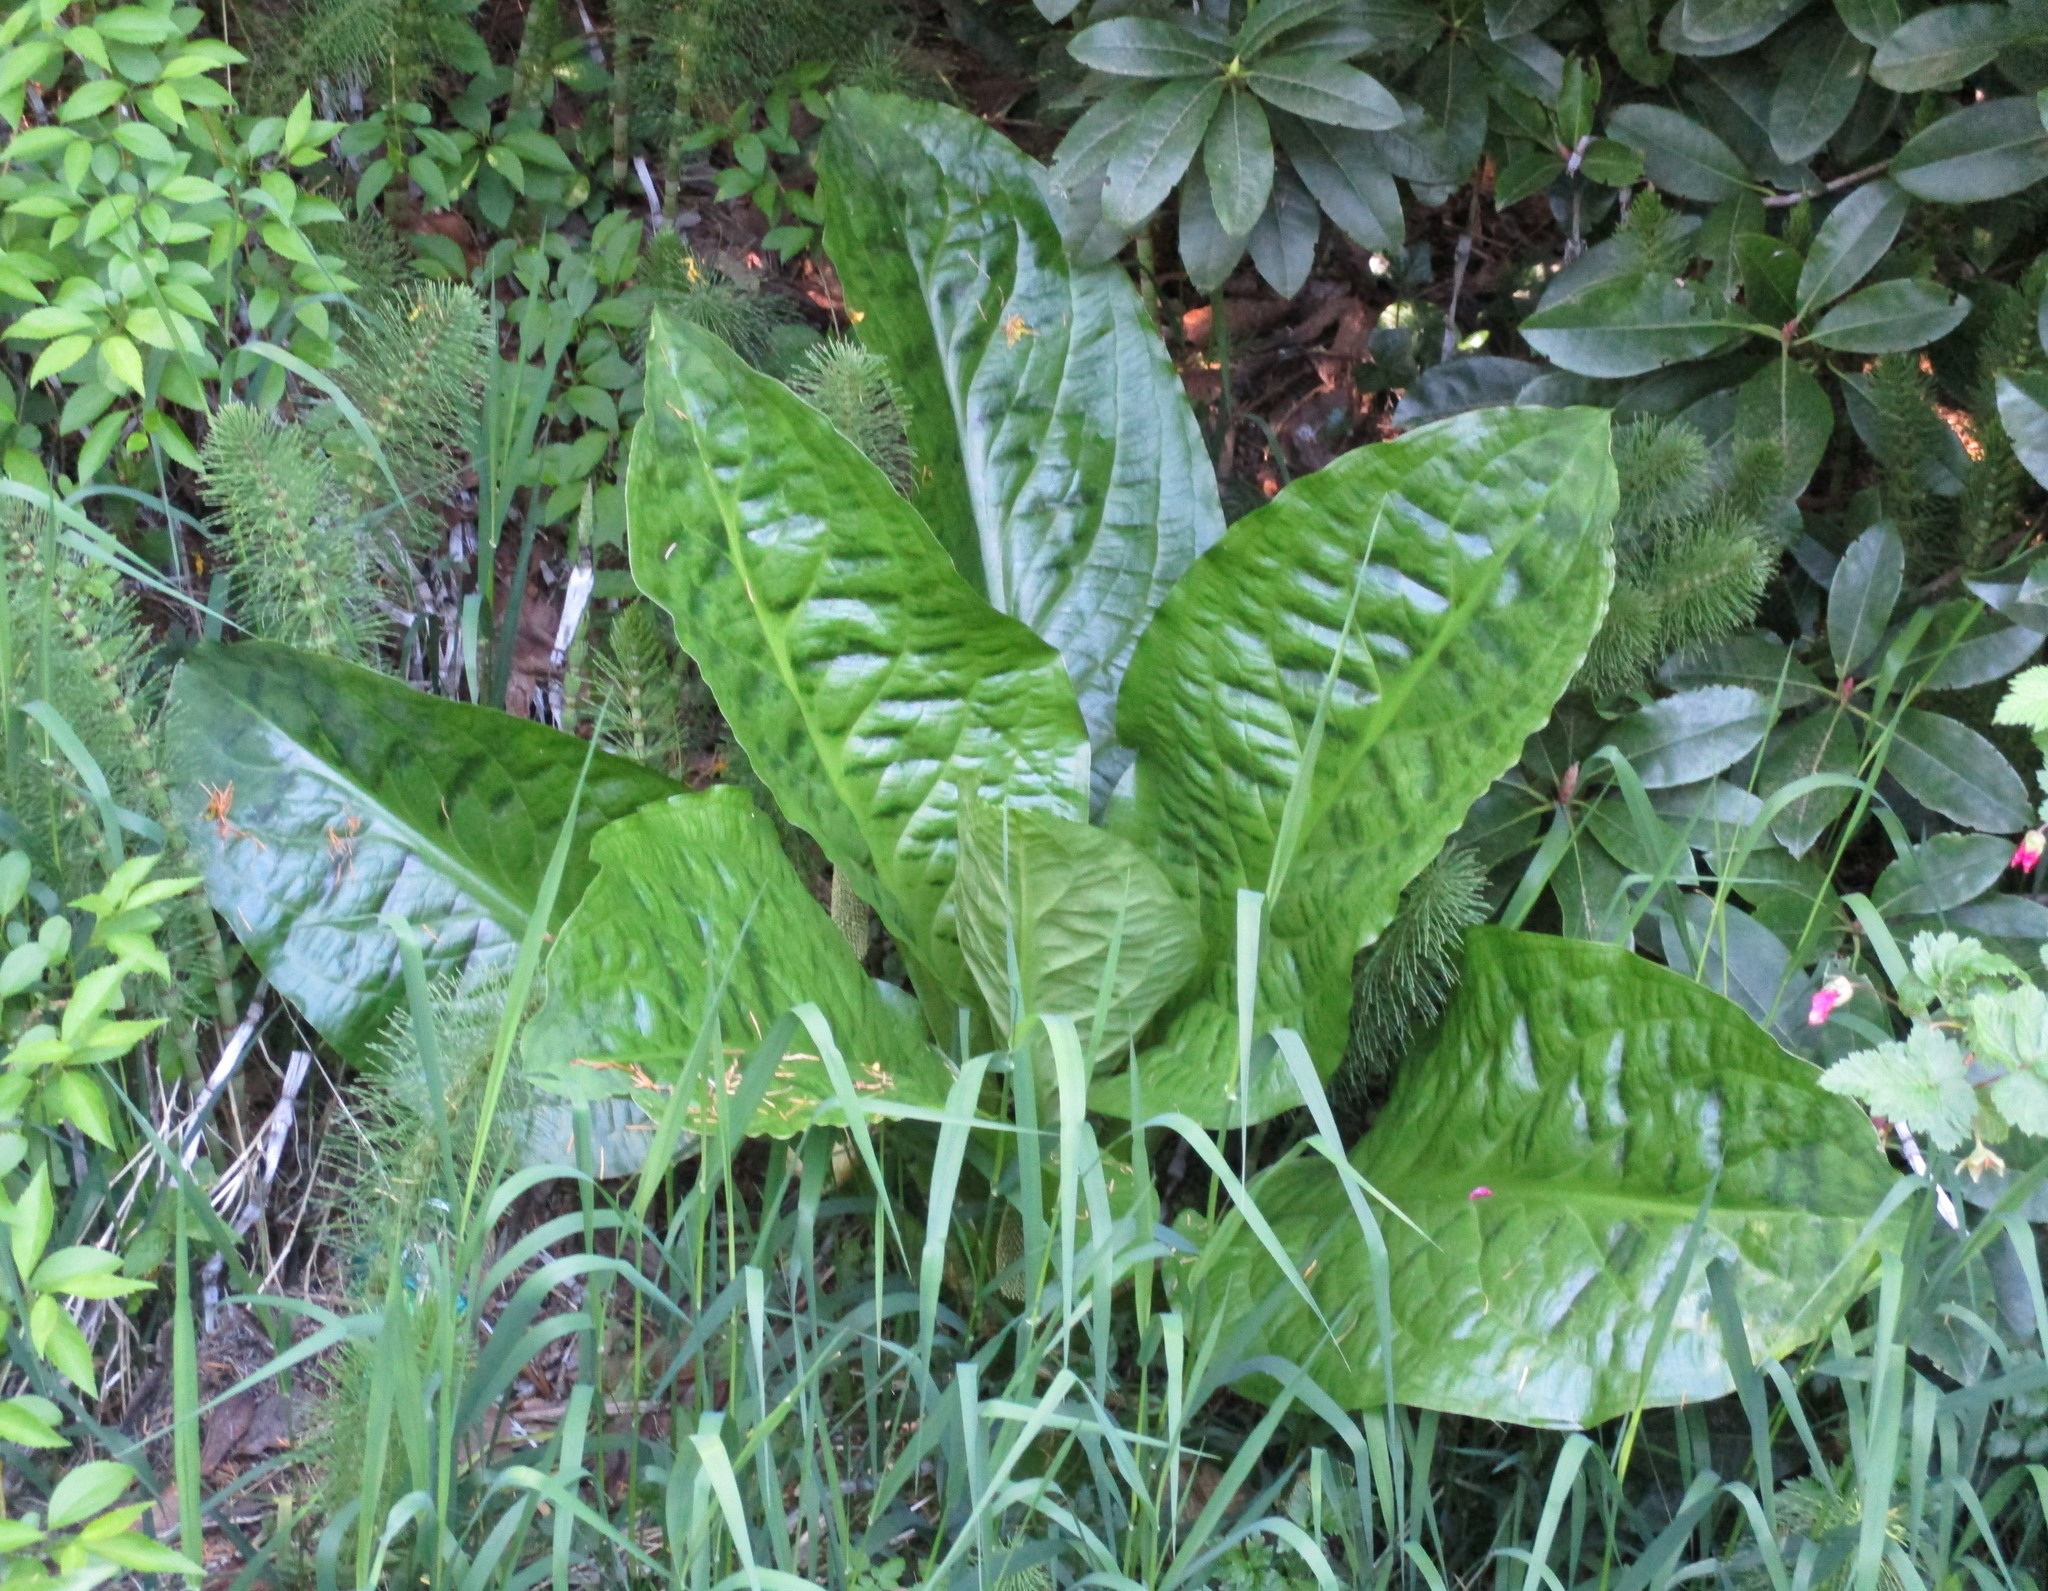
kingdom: Plantae
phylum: Tracheophyta
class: Liliopsida
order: Alismatales
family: Araceae
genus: Lysichiton
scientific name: Lysichiton americanus
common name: American skunk cabbage
